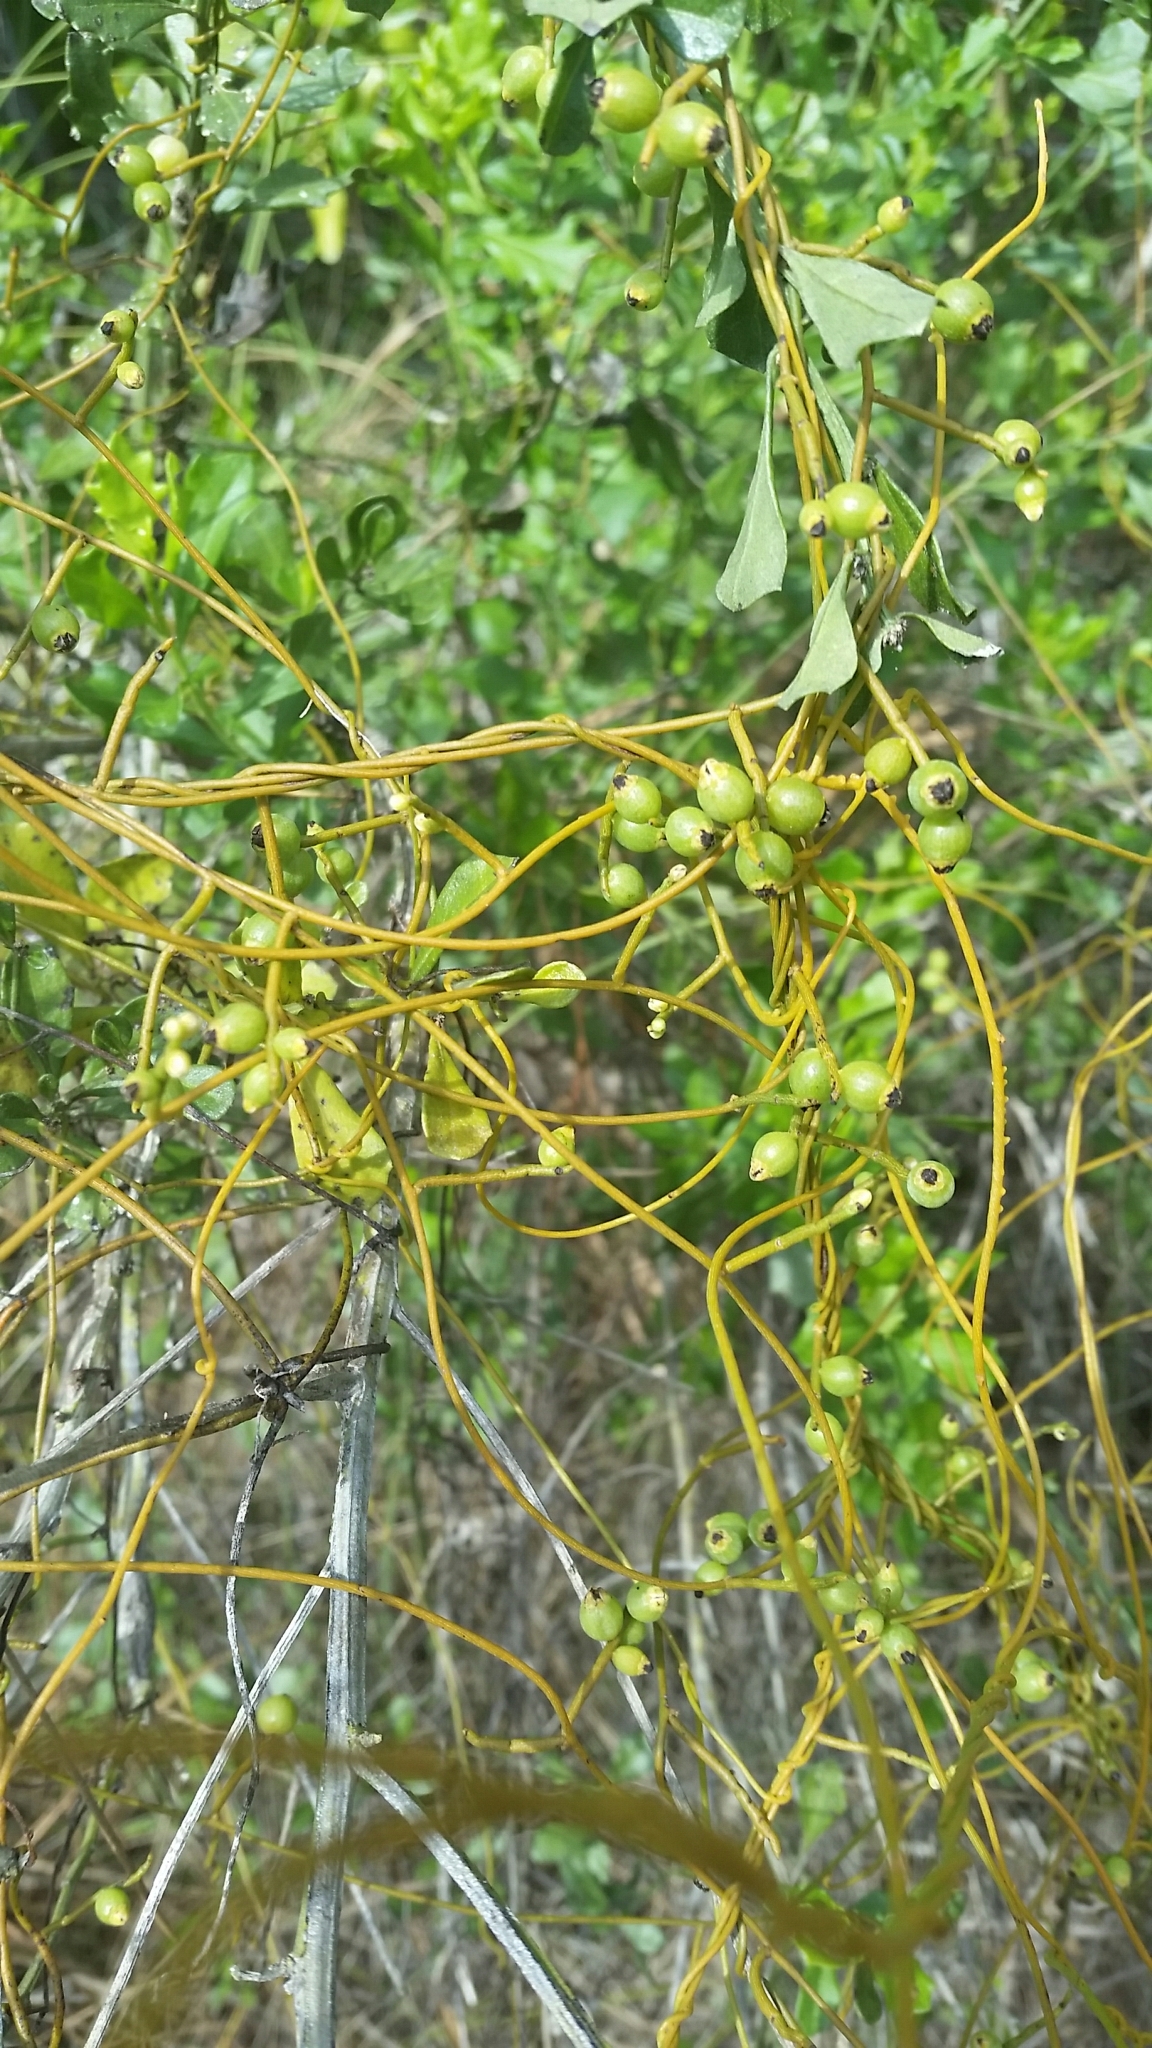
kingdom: Plantae
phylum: Tracheophyta
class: Magnoliopsida
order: Laurales
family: Lauraceae
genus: Cassytha
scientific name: Cassytha filiformis
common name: Dodder-laurel
